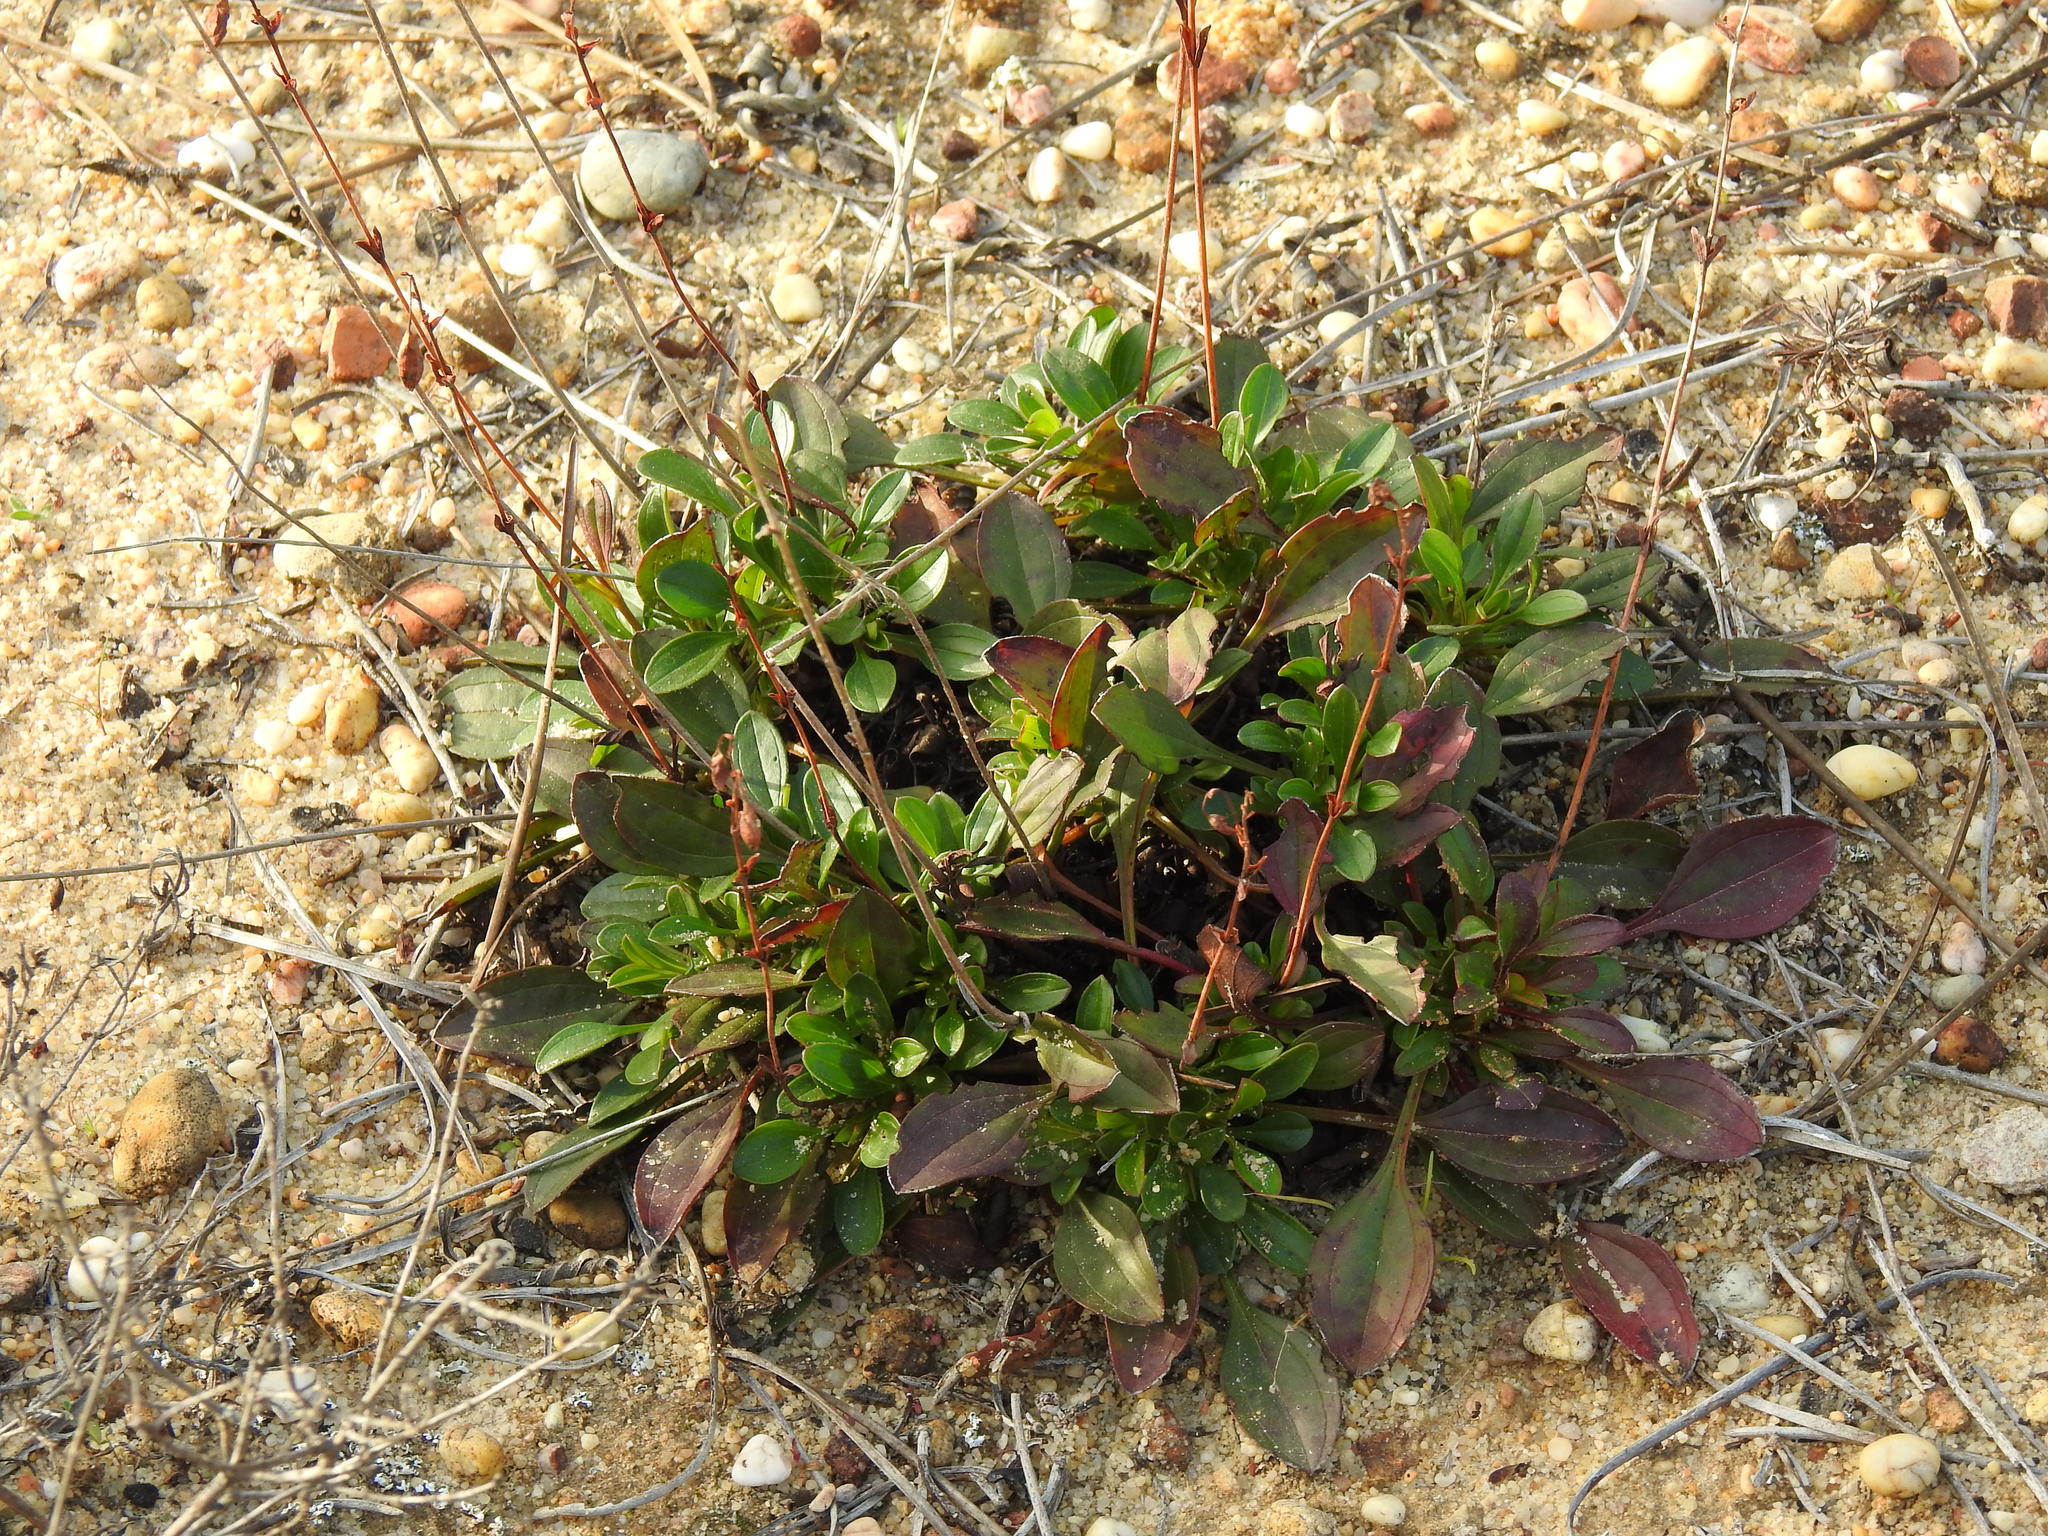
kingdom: Plantae
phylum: Tracheophyta
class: Magnoliopsida
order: Malvales
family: Cistaceae
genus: Tuberaria
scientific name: Tuberaria globulariifolia
